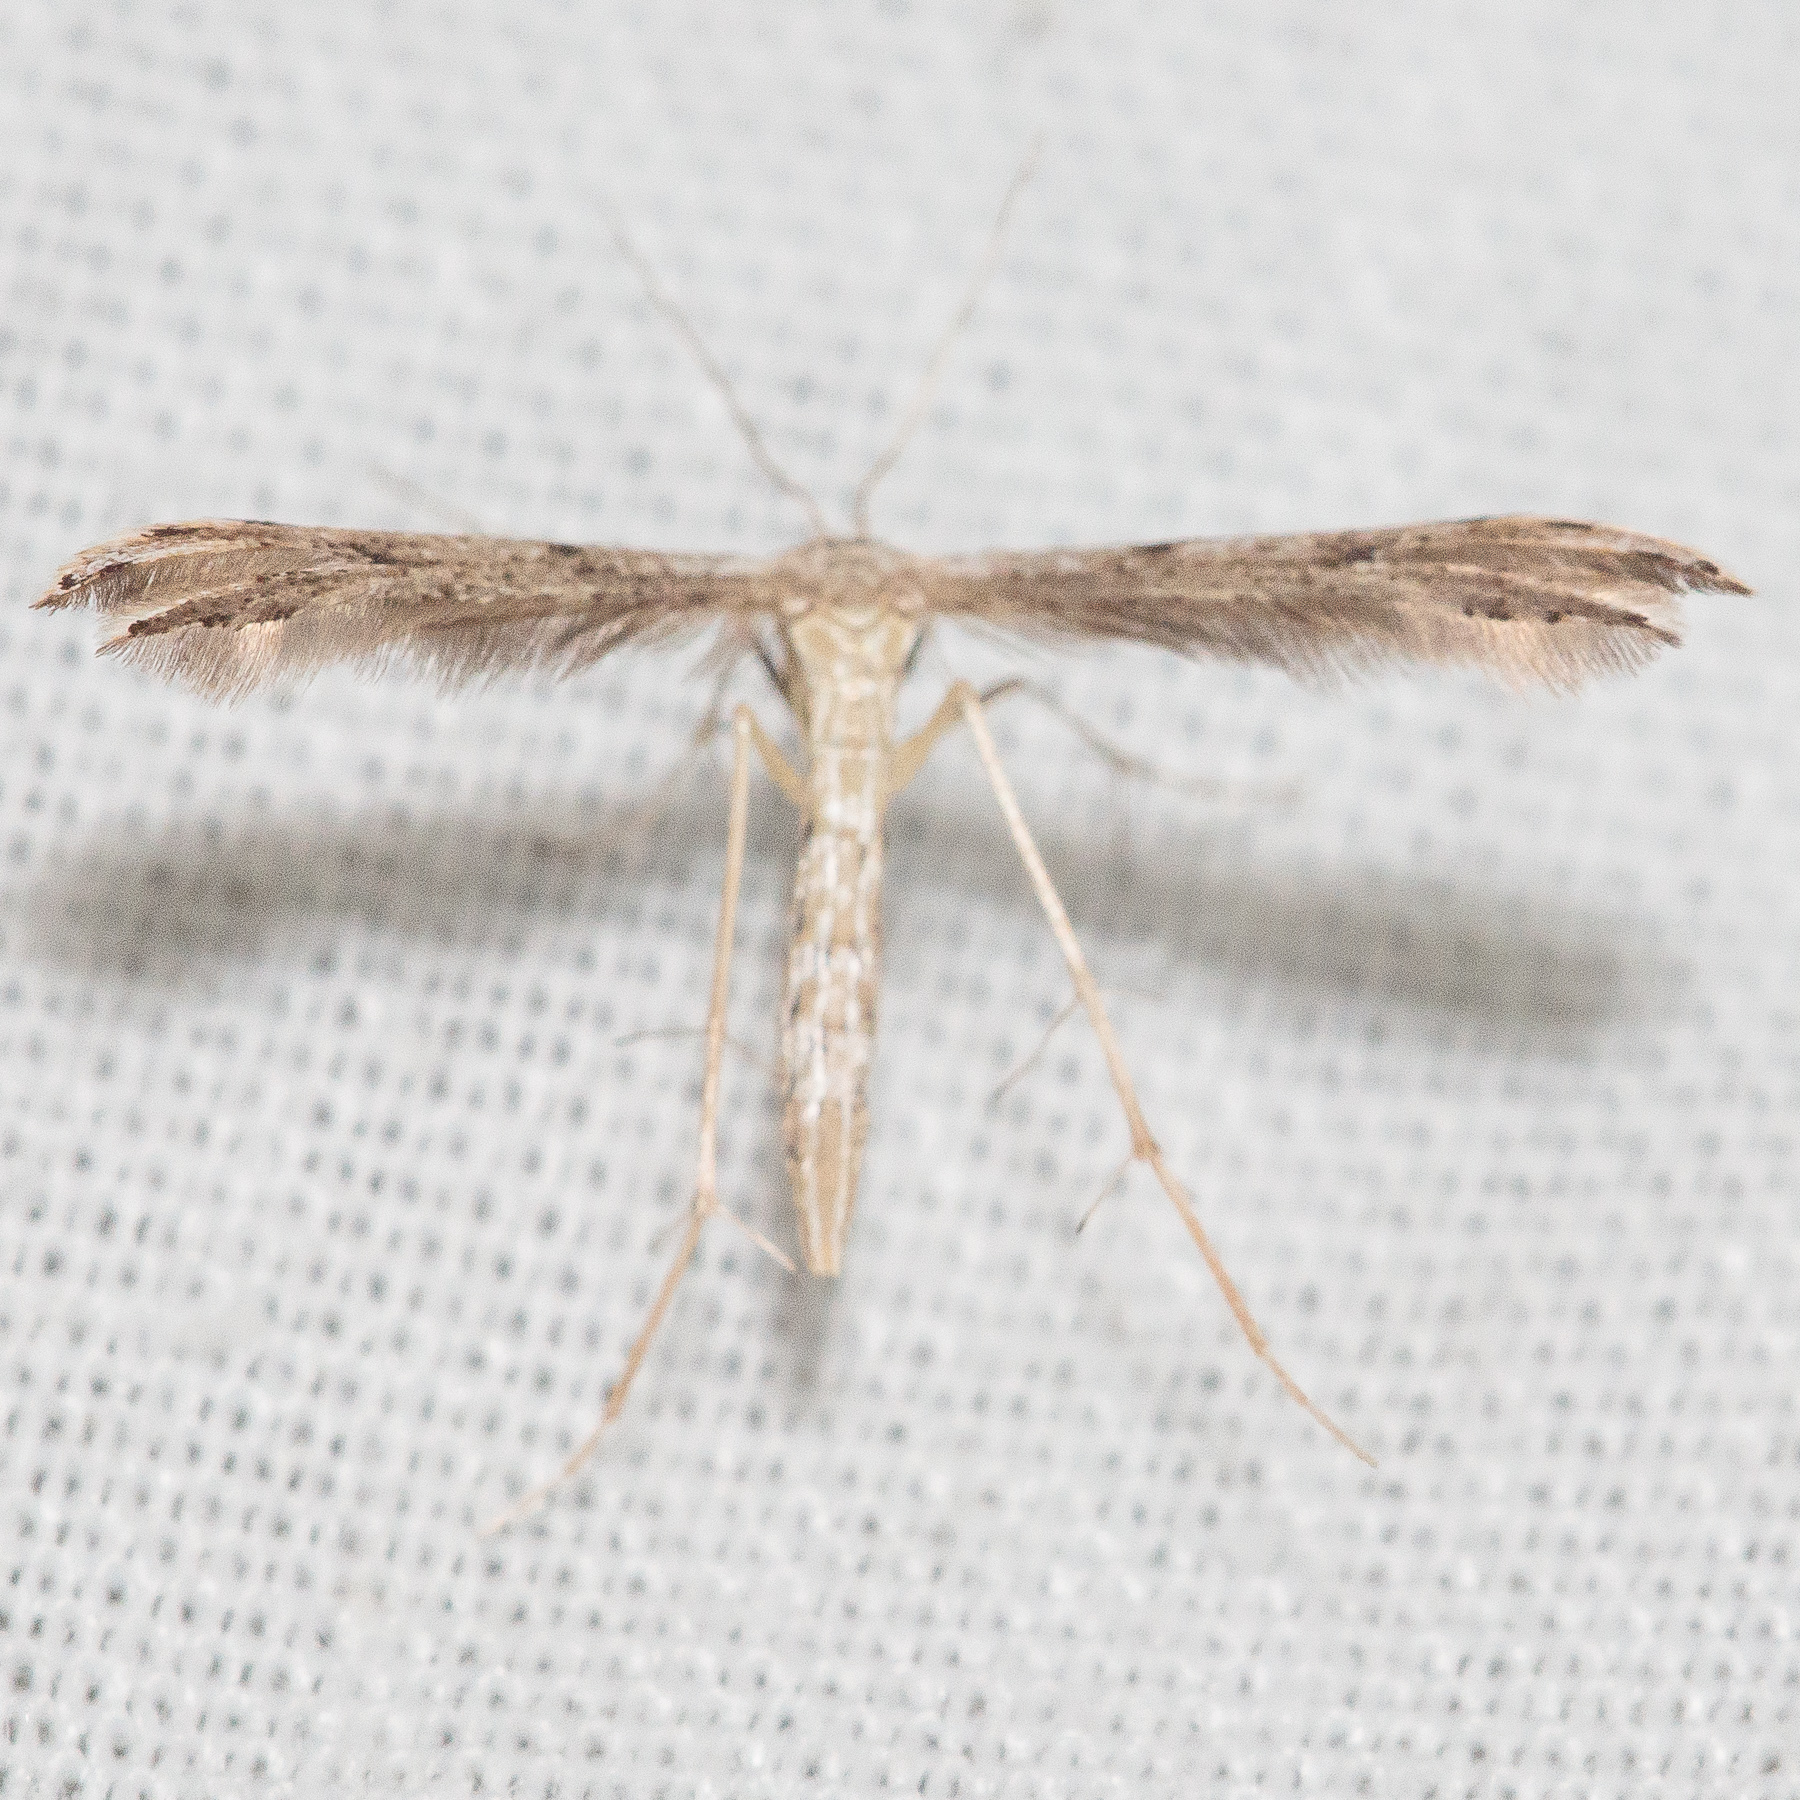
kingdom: Animalia
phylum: Arthropoda
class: Insecta
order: Lepidoptera
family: Pterophoridae
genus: Pselnophorus
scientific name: Pselnophorus belfragei
